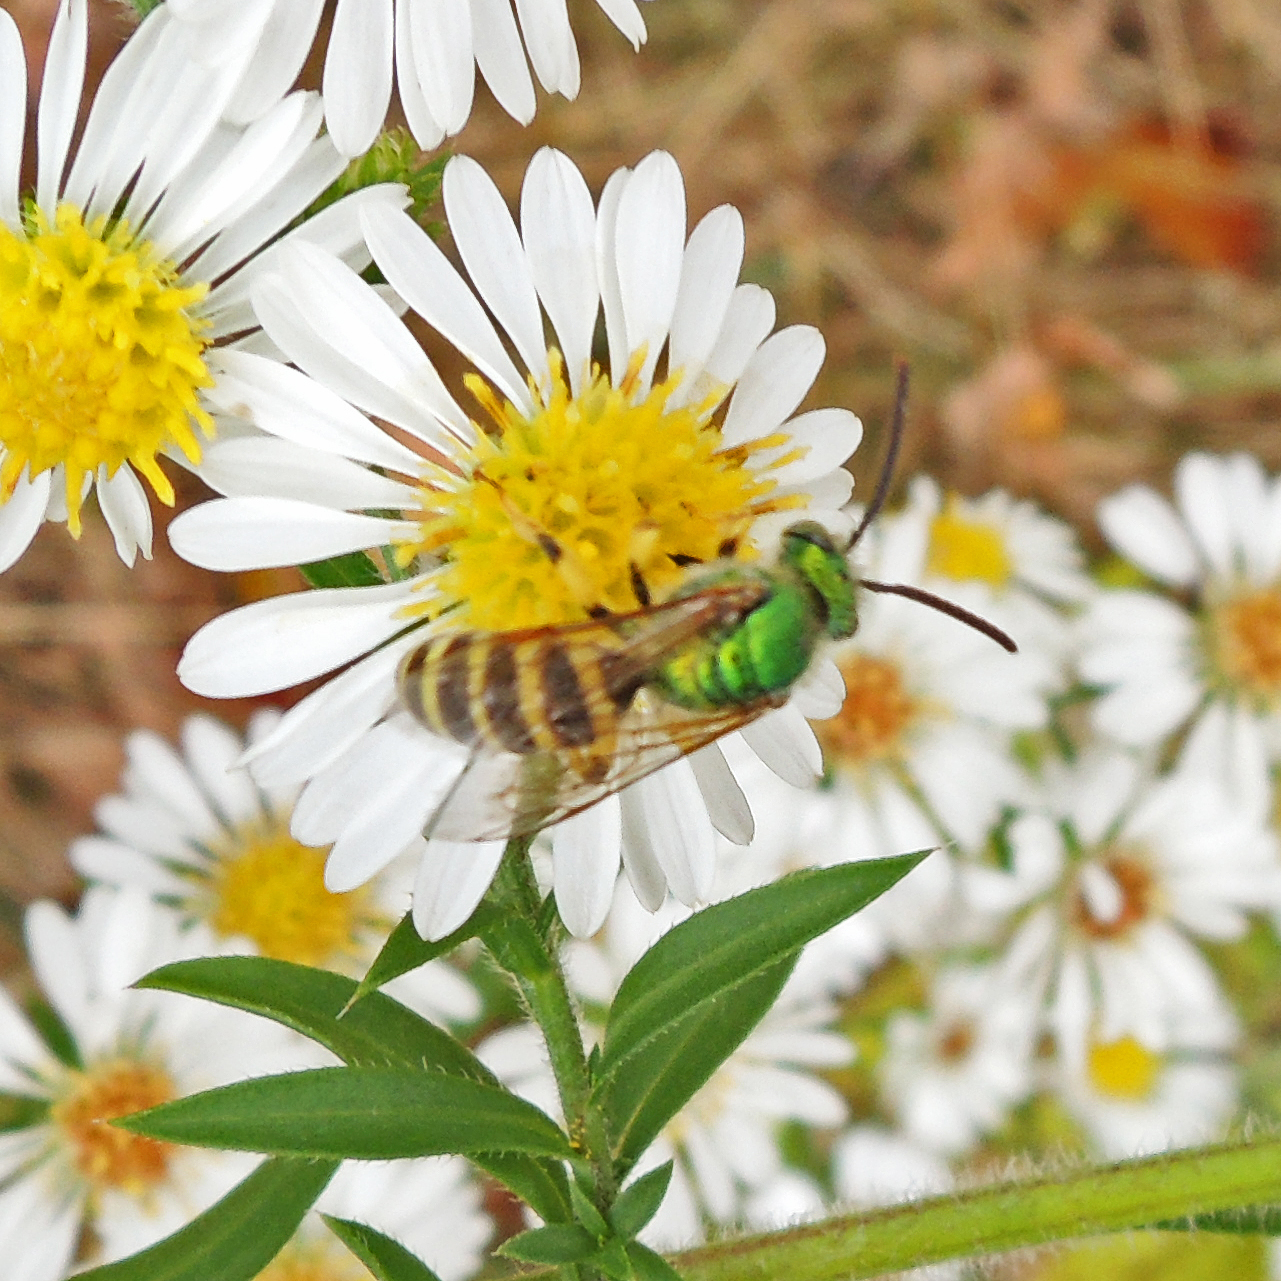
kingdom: Animalia
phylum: Arthropoda
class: Insecta
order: Hymenoptera
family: Halictidae
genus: Agapostemon
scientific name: Agapostemon virescens
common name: Bicolored striped sweat bee
